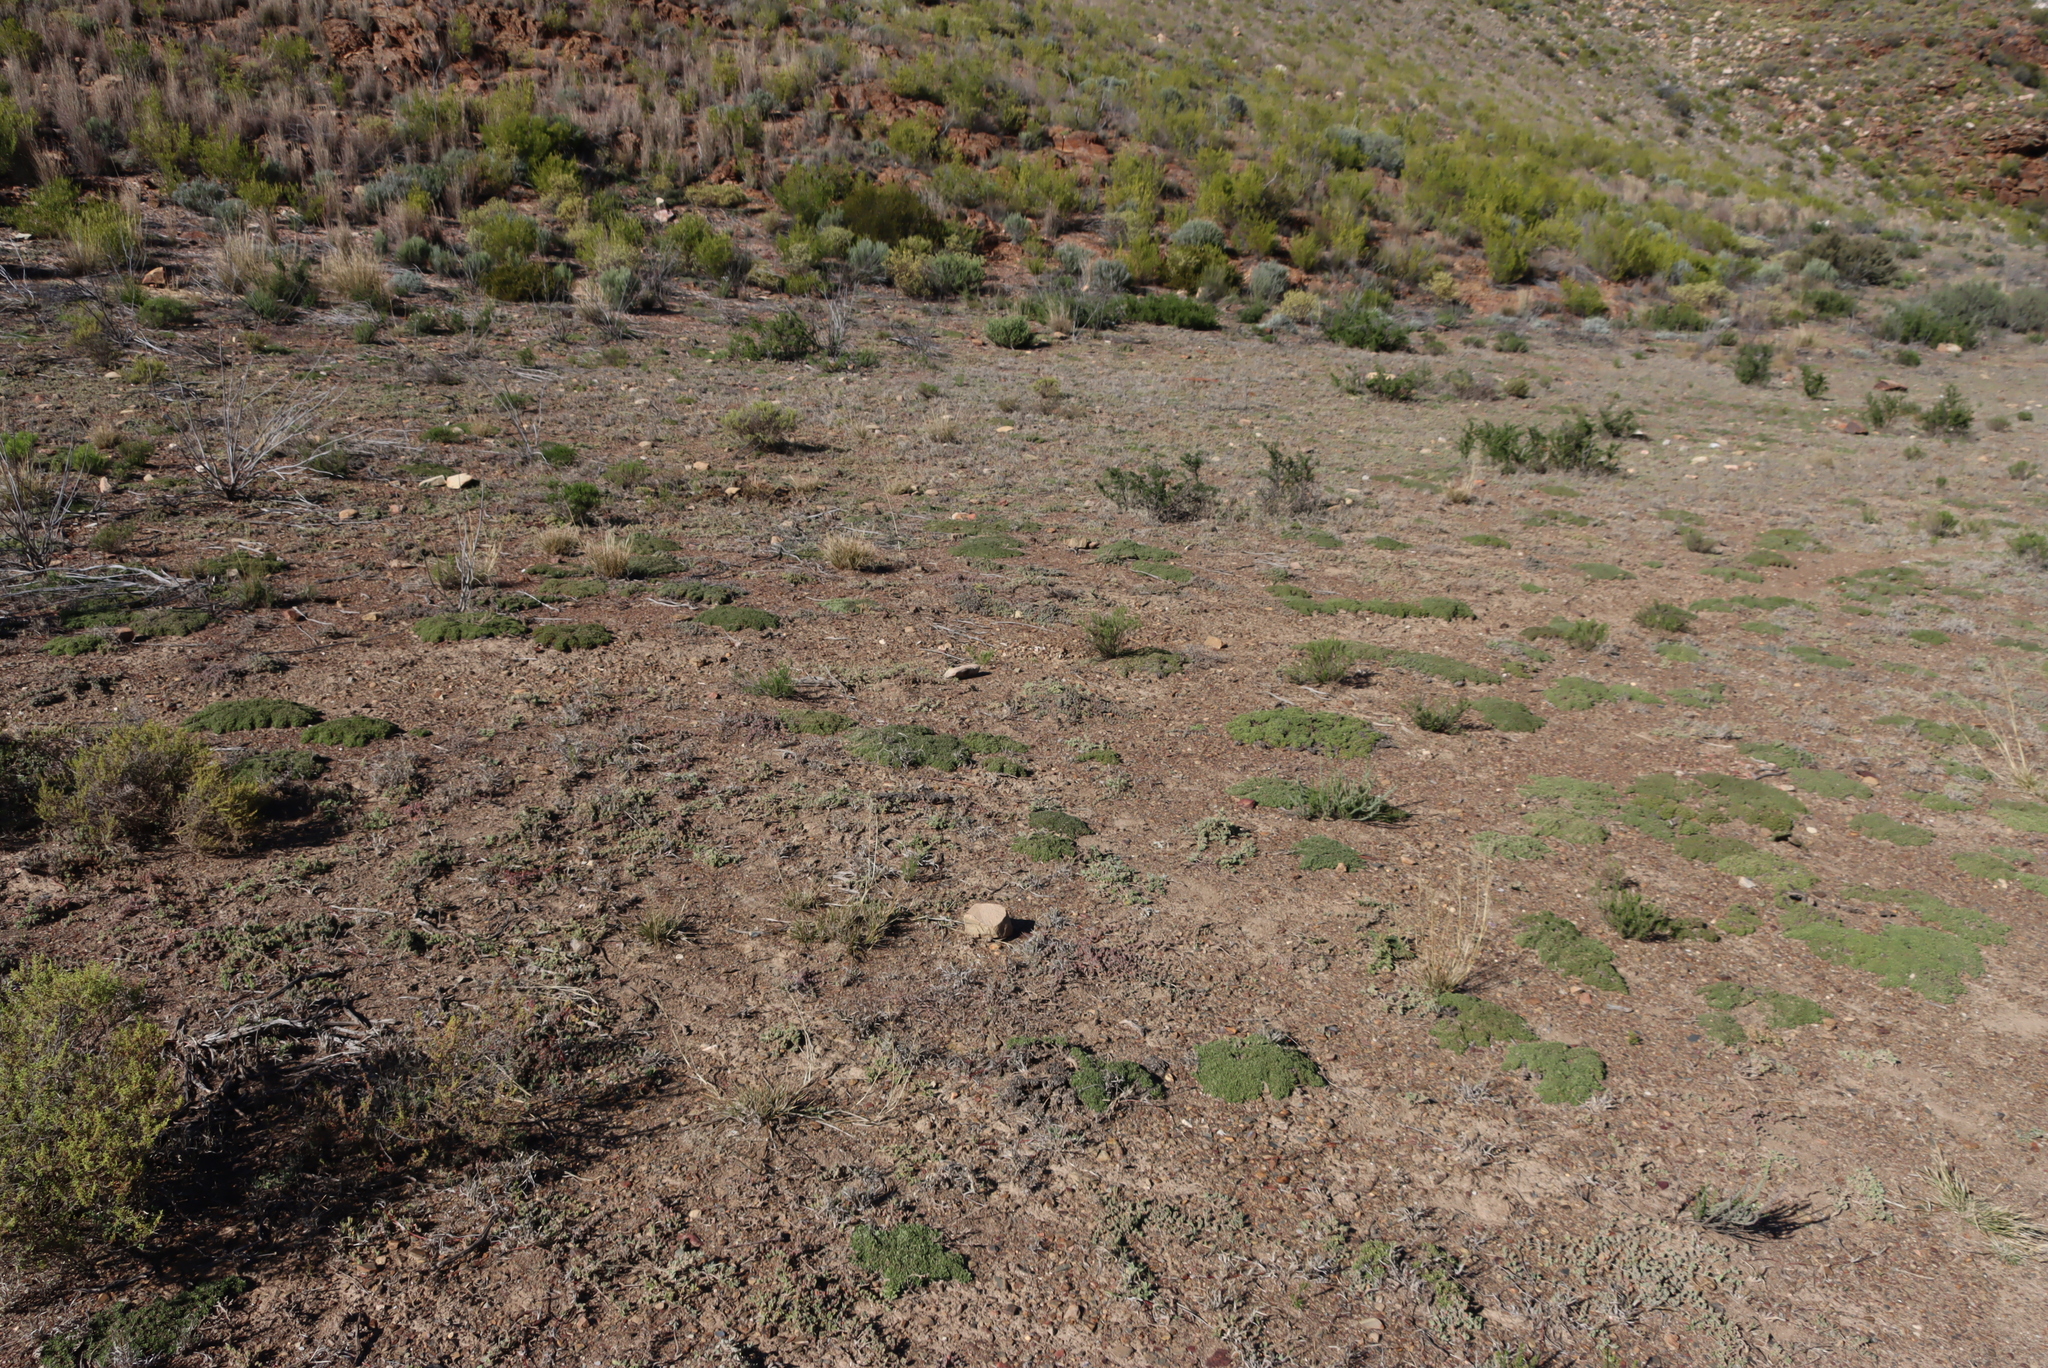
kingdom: Plantae
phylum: Tracheophyta
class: Magnoliopsida
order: Caryophyllales
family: Aizoaceae
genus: Drosanthemum
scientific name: Drosanthemum tuberculiferum
